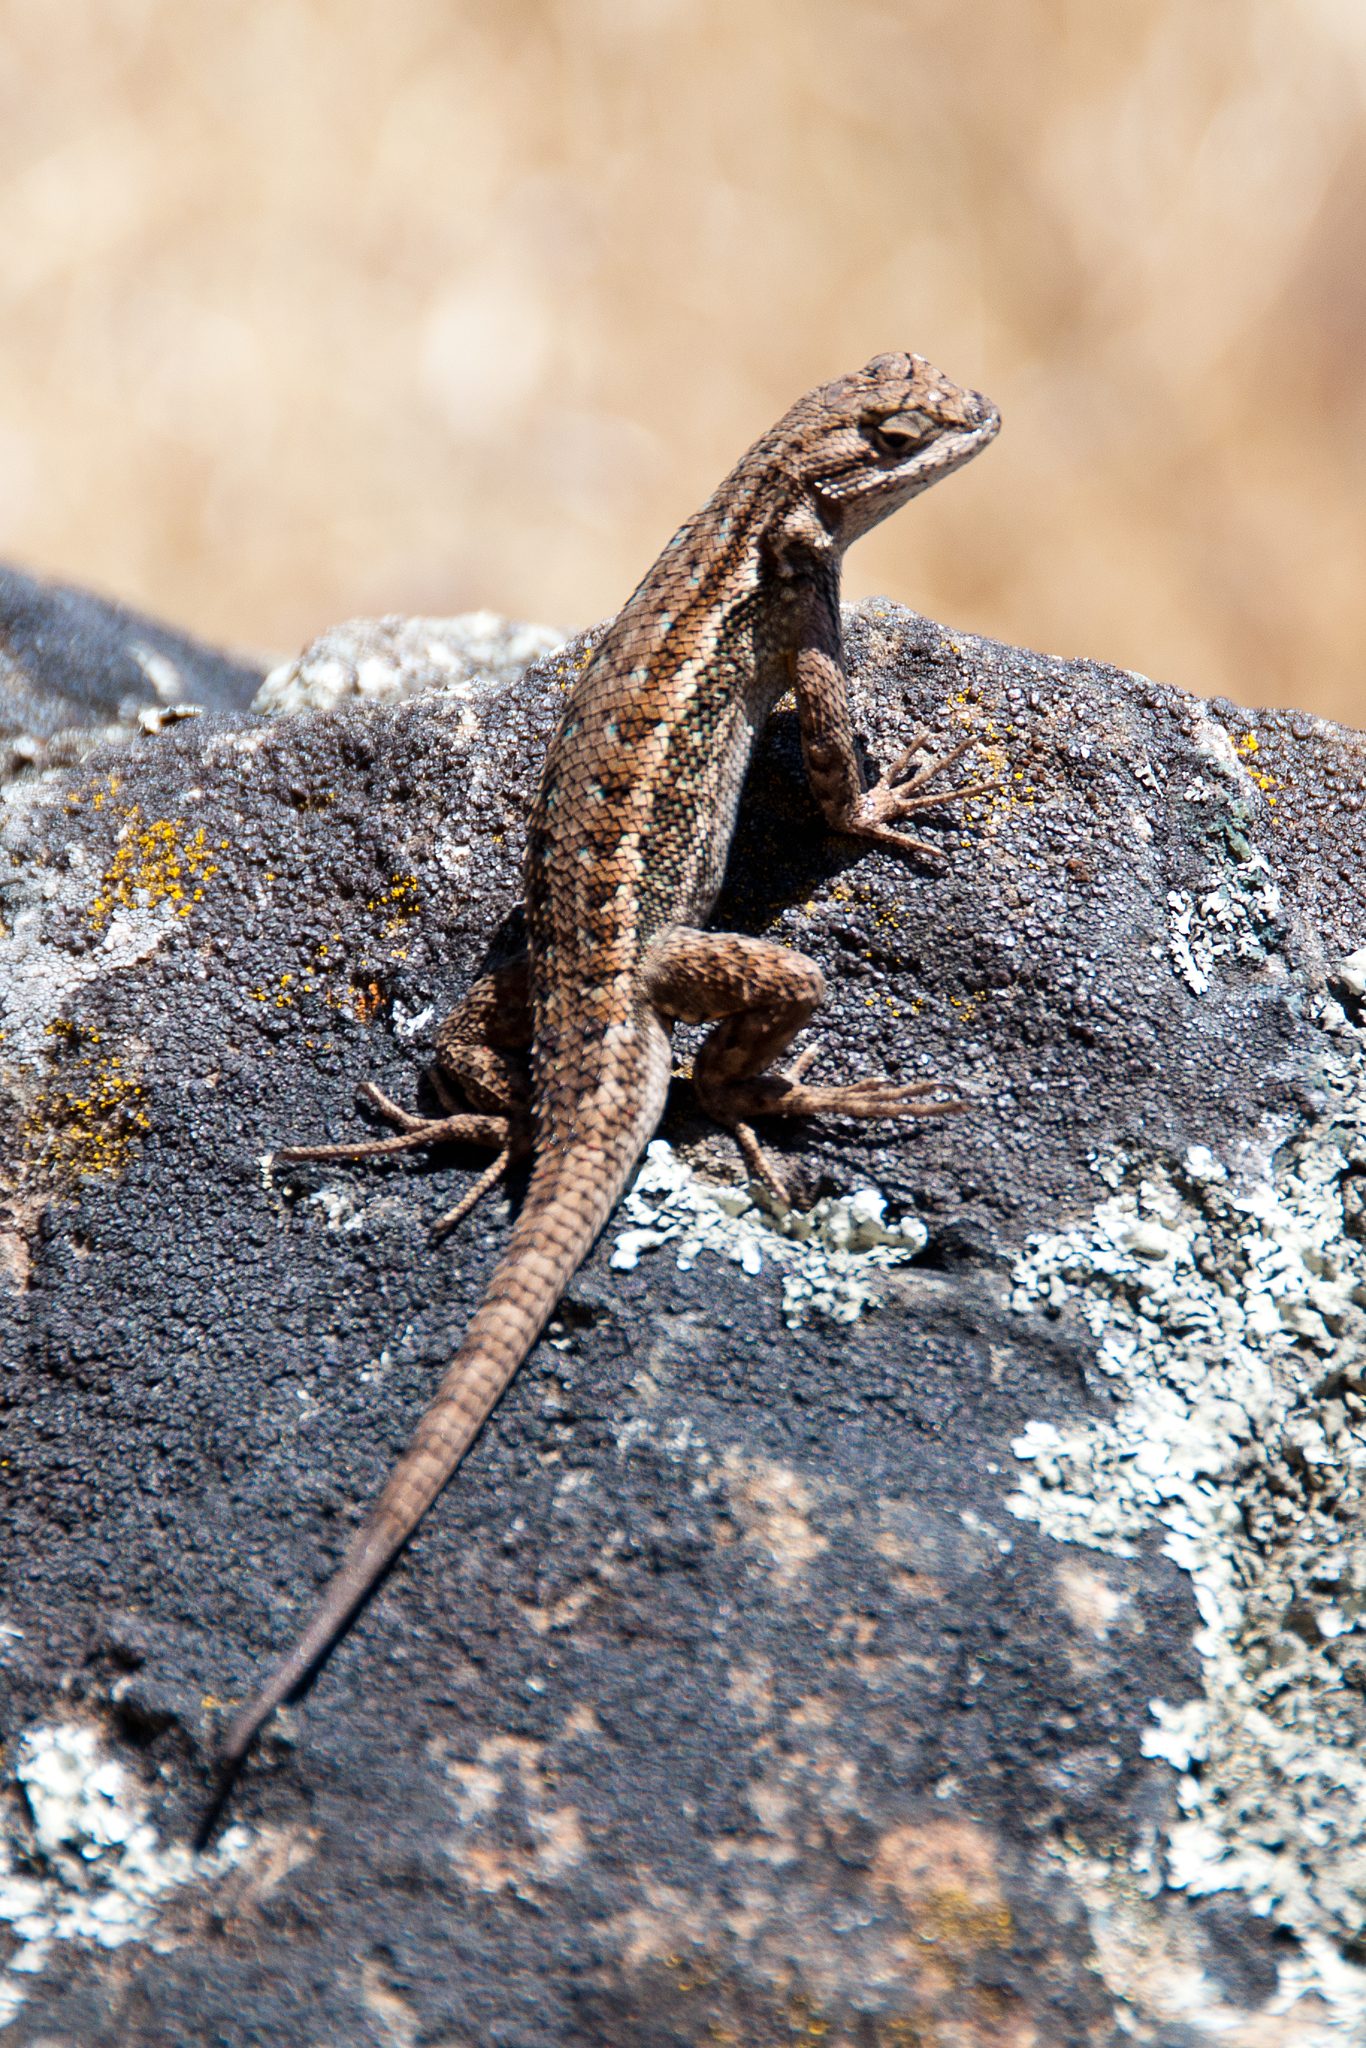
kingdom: Animalia
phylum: Chordata
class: Squamata
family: Phrynosomatidae
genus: Sceloporus
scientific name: Sceloporus occidentalis
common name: Western fence lizard
